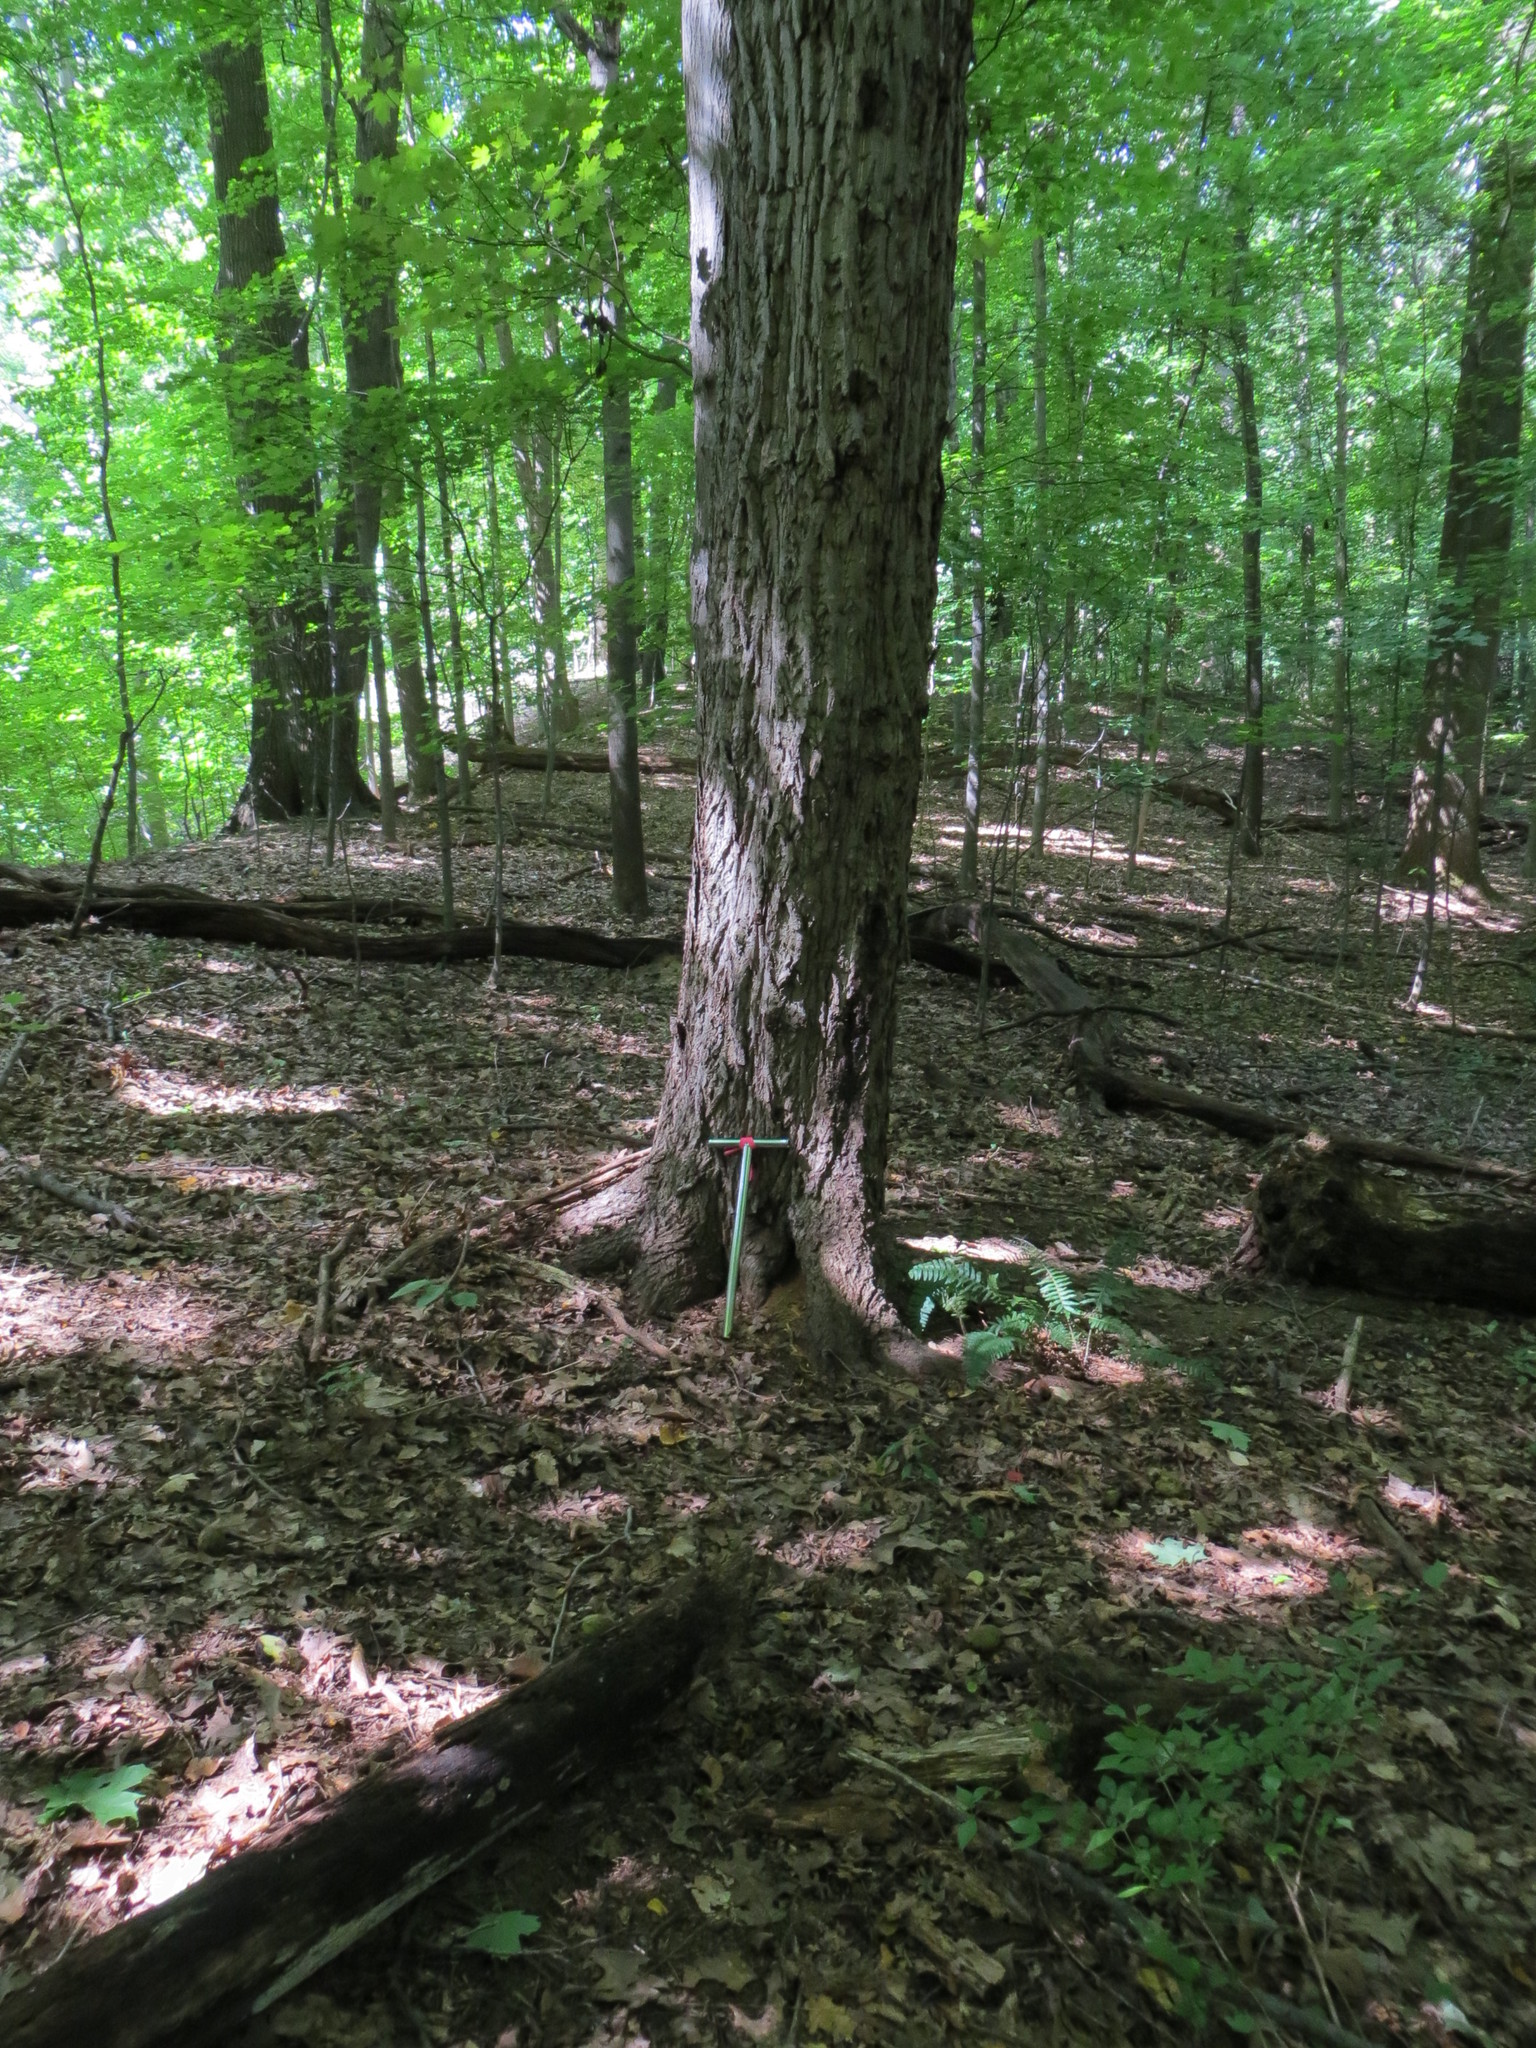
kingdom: Plantae
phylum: Tracheophyta
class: Magnoliopsida
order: Fagales
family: Juglandaceae
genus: Juglans
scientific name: Juglans cinerea
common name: Butternut
